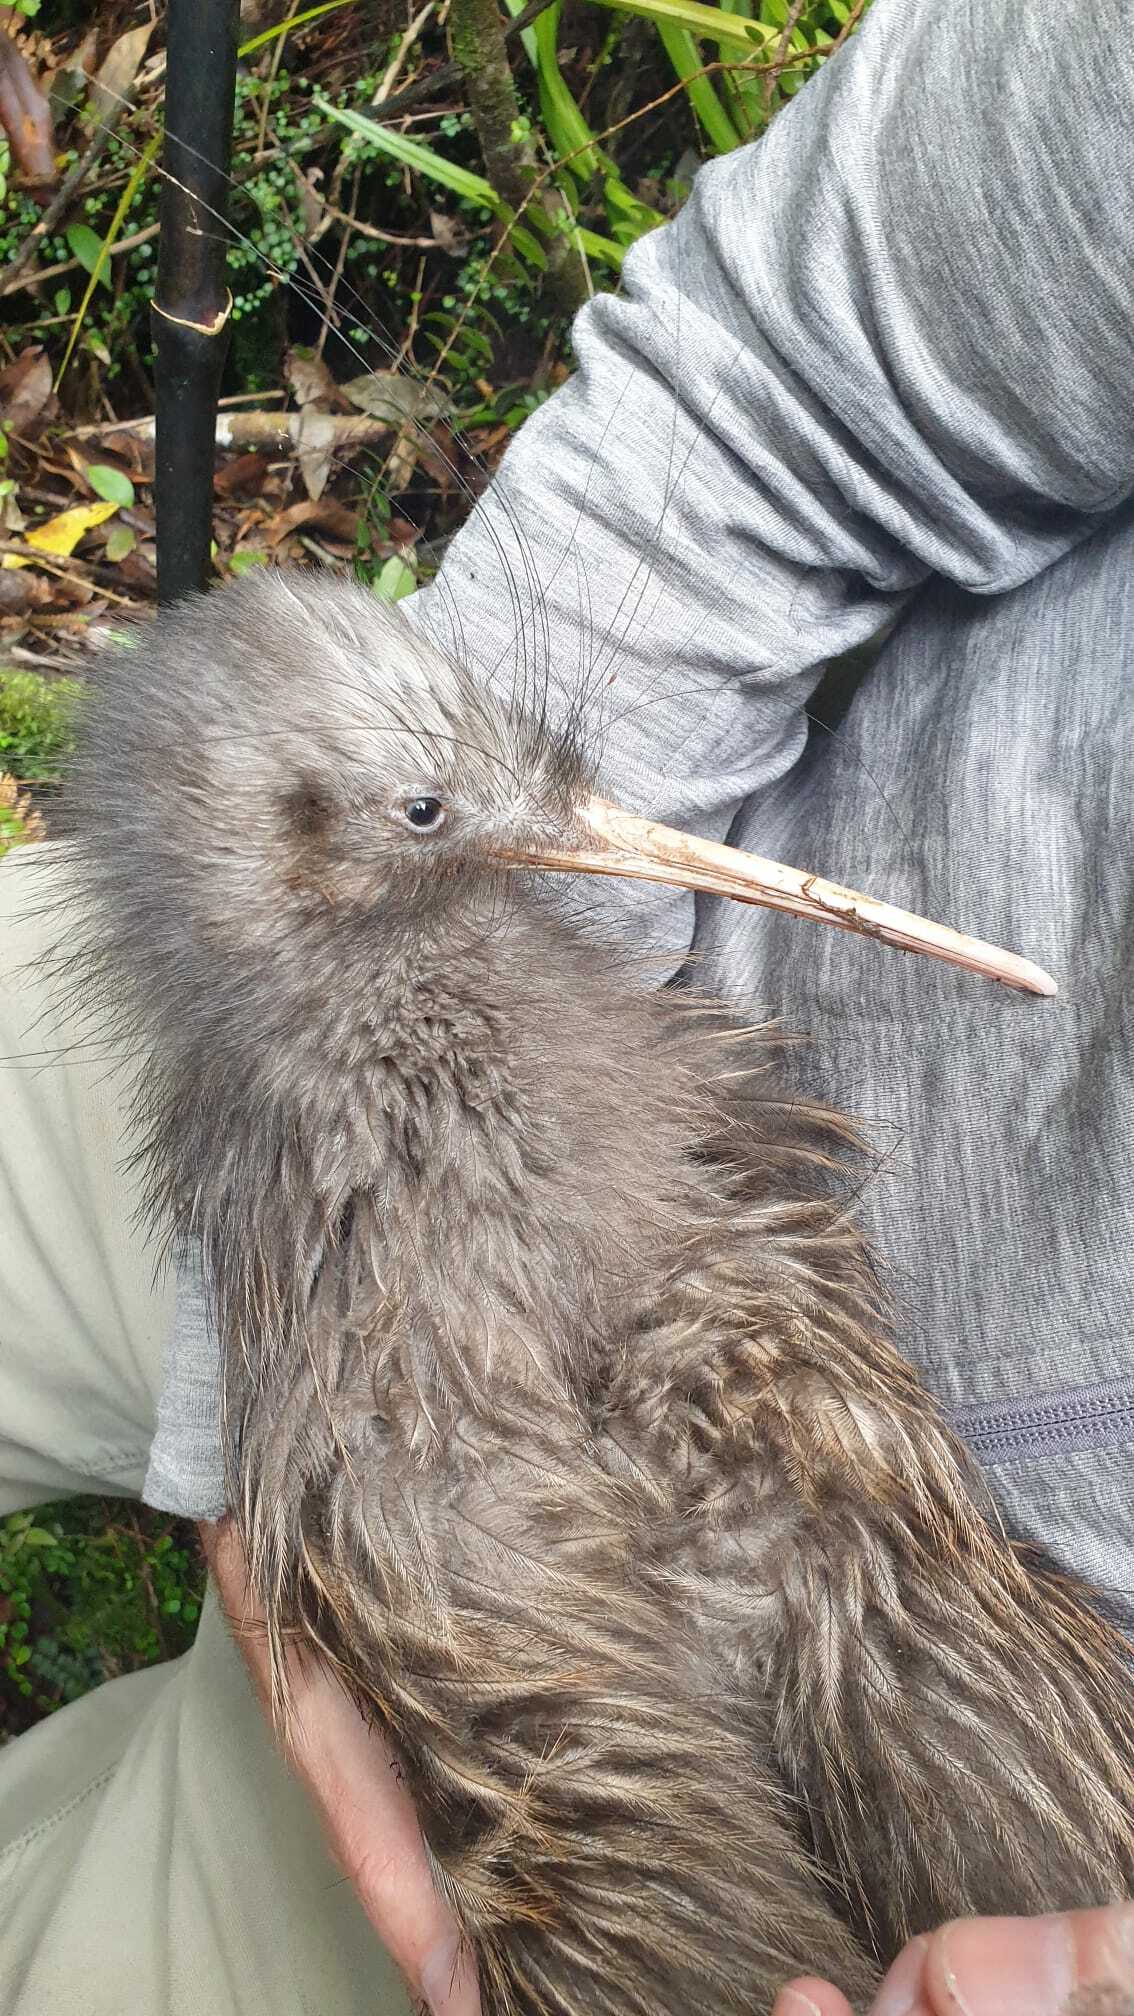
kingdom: Animalia
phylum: Chordata
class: Aves
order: Apterygiformes
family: Apterygidae
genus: Apteryx
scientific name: Apteryx mantelli
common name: North island brown kiwi
